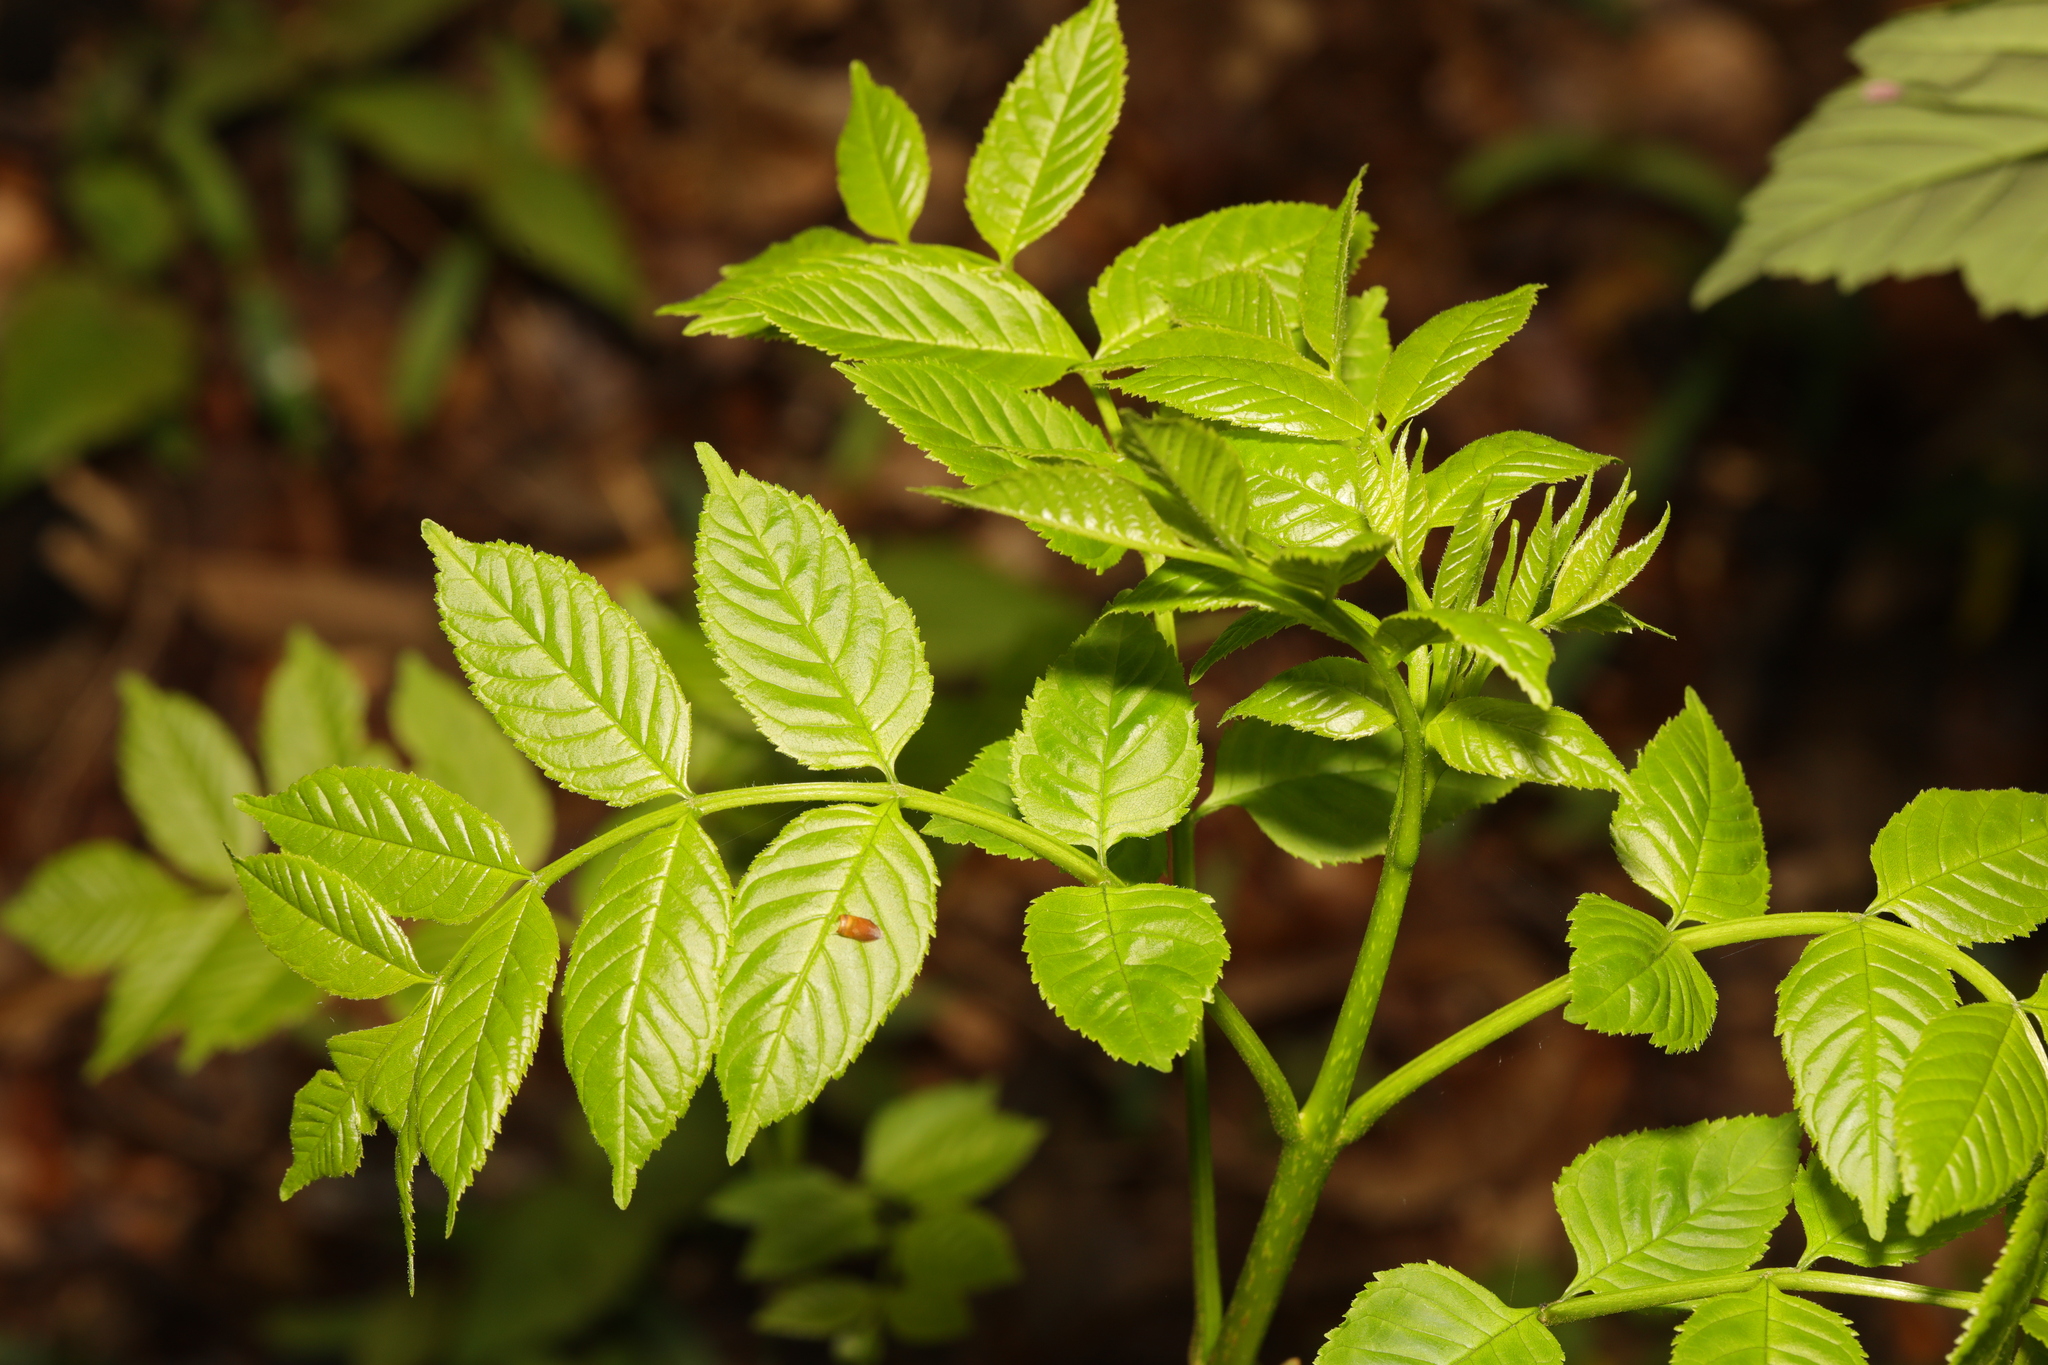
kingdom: Plantae
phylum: Tracheophyta
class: Magnoliopsida
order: Lamiales
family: Oleaceae
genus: Fraxinus
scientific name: Fraxinus excelsior
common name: European ash
